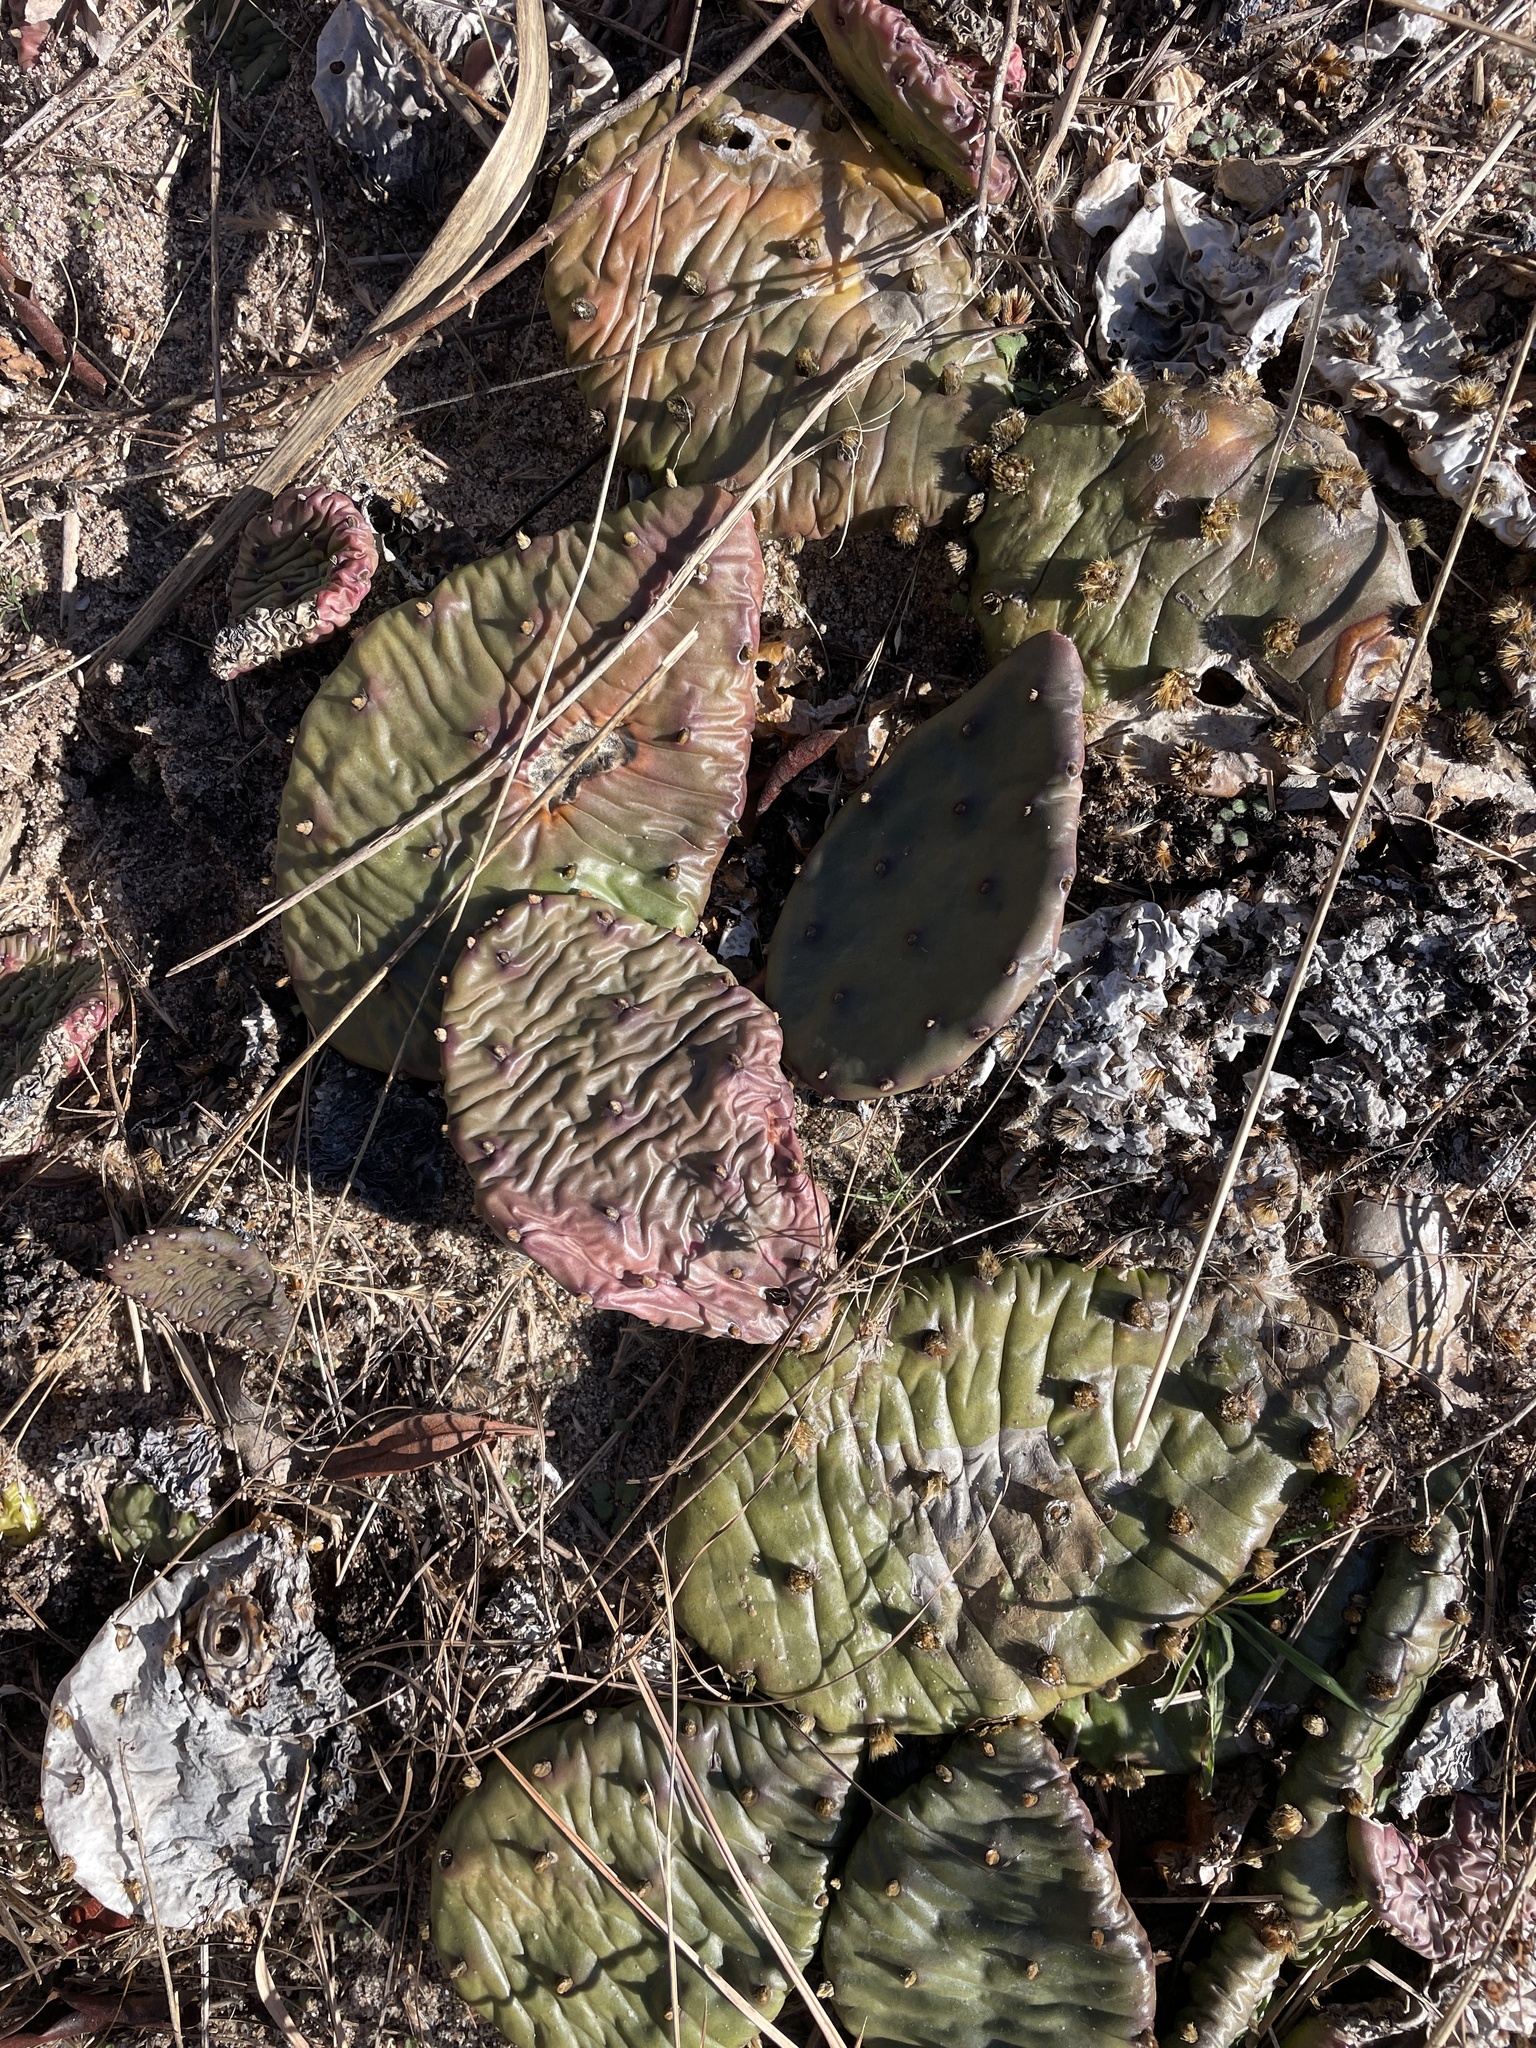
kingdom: Plantae
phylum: Tracheophyta
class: Magnoliopsida
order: Caryophyllales
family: Cactaceae
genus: Opuntia
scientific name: Opuntia humifusa
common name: Eastern prickly-pear
